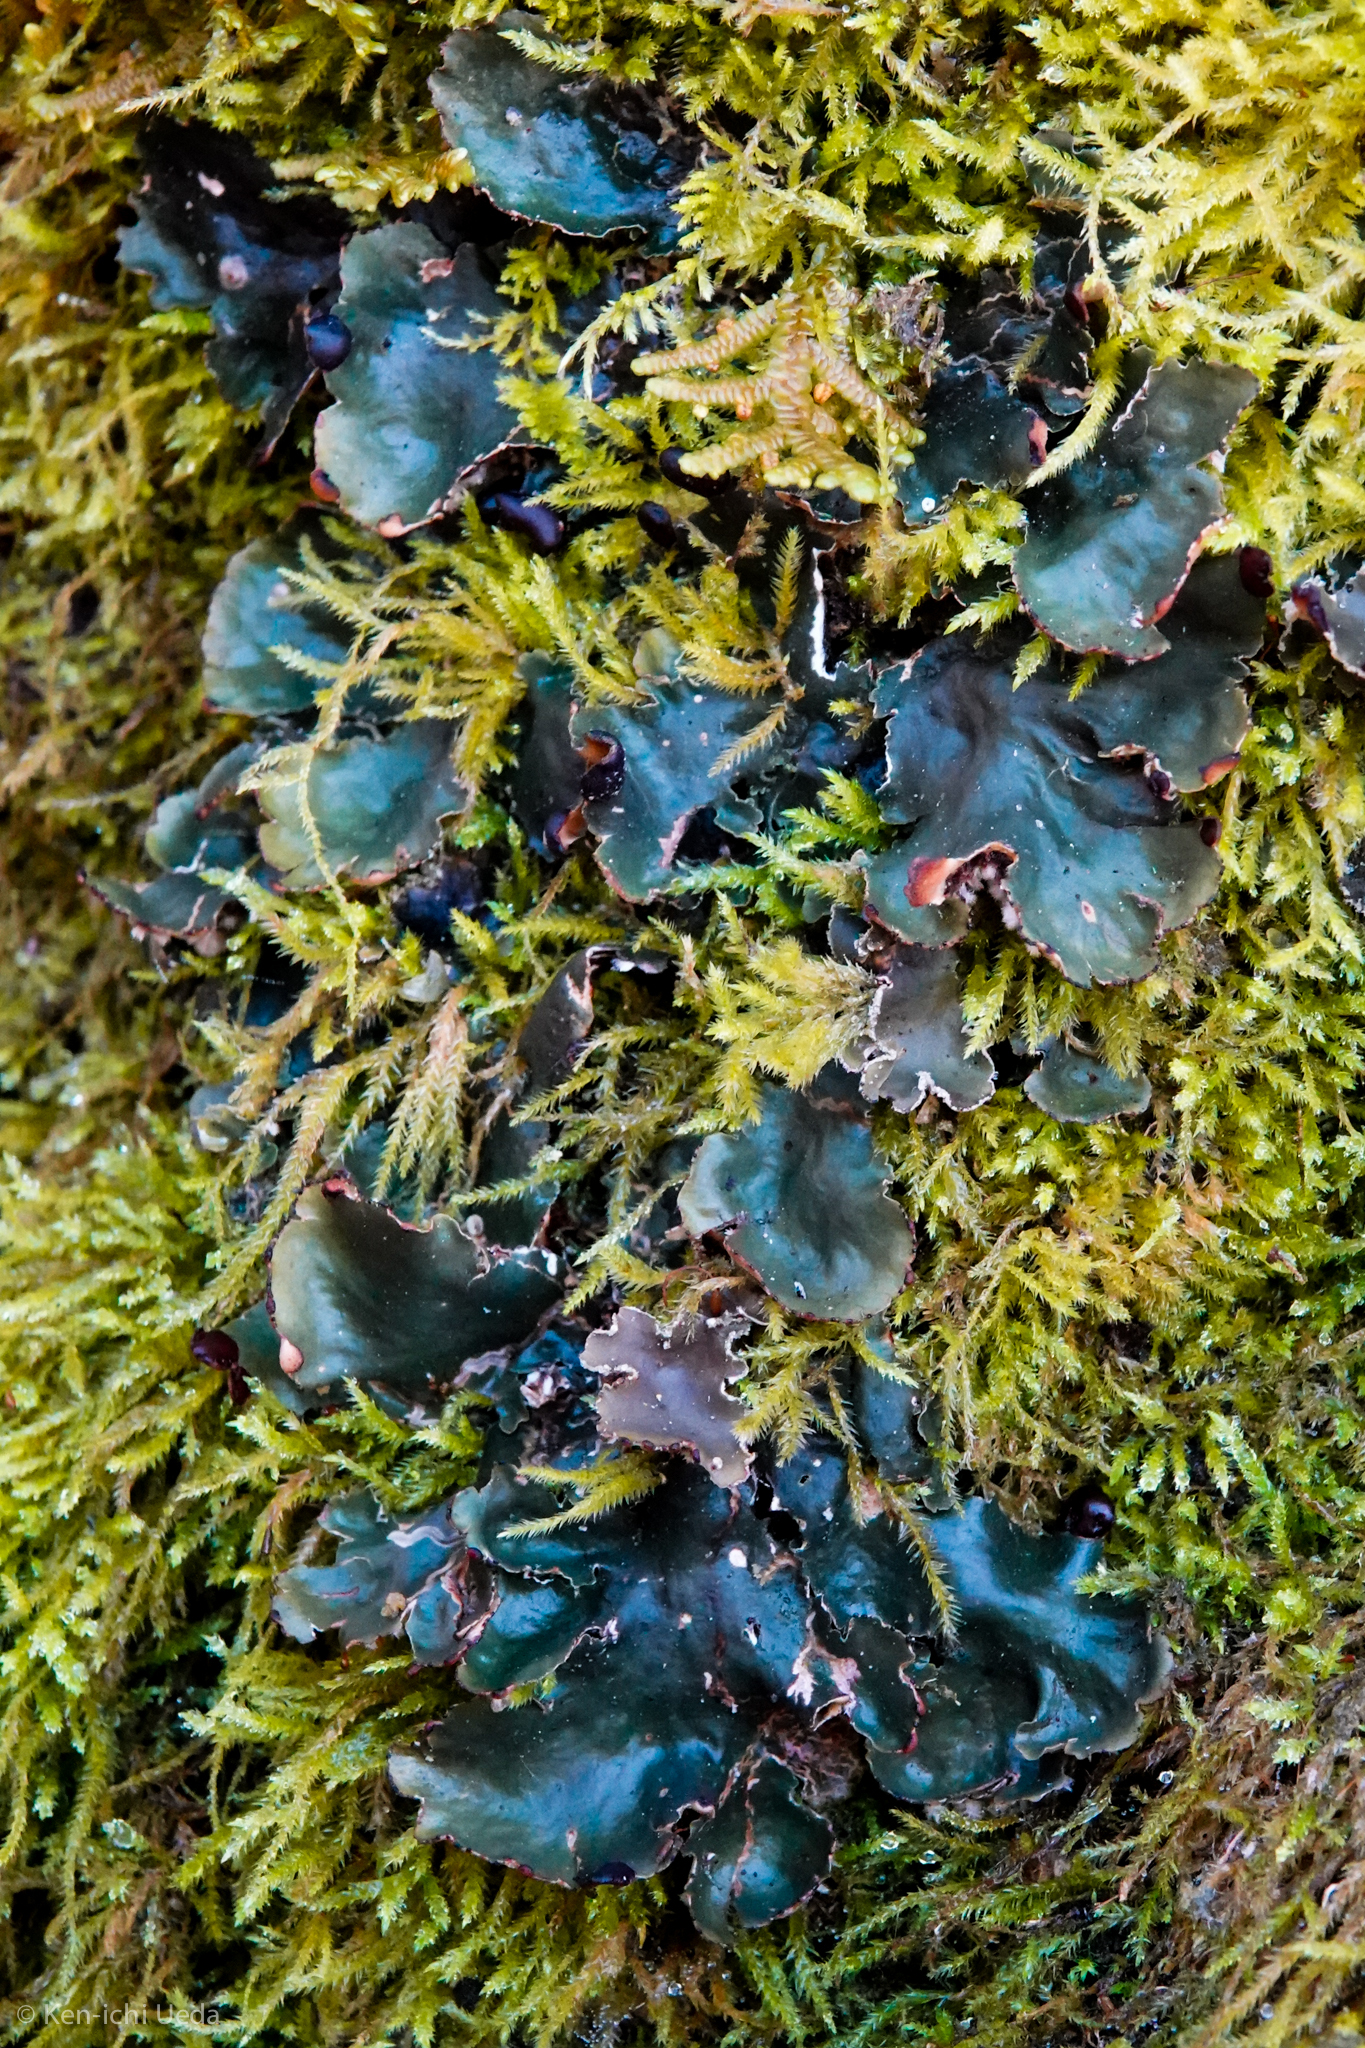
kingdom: Fungi
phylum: Ascomycota
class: Lecanoromycetes
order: Peltigerales
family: Peltigeraceae
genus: Peltigera
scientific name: Peltigera collina
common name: Gritty tree pelt lichen
